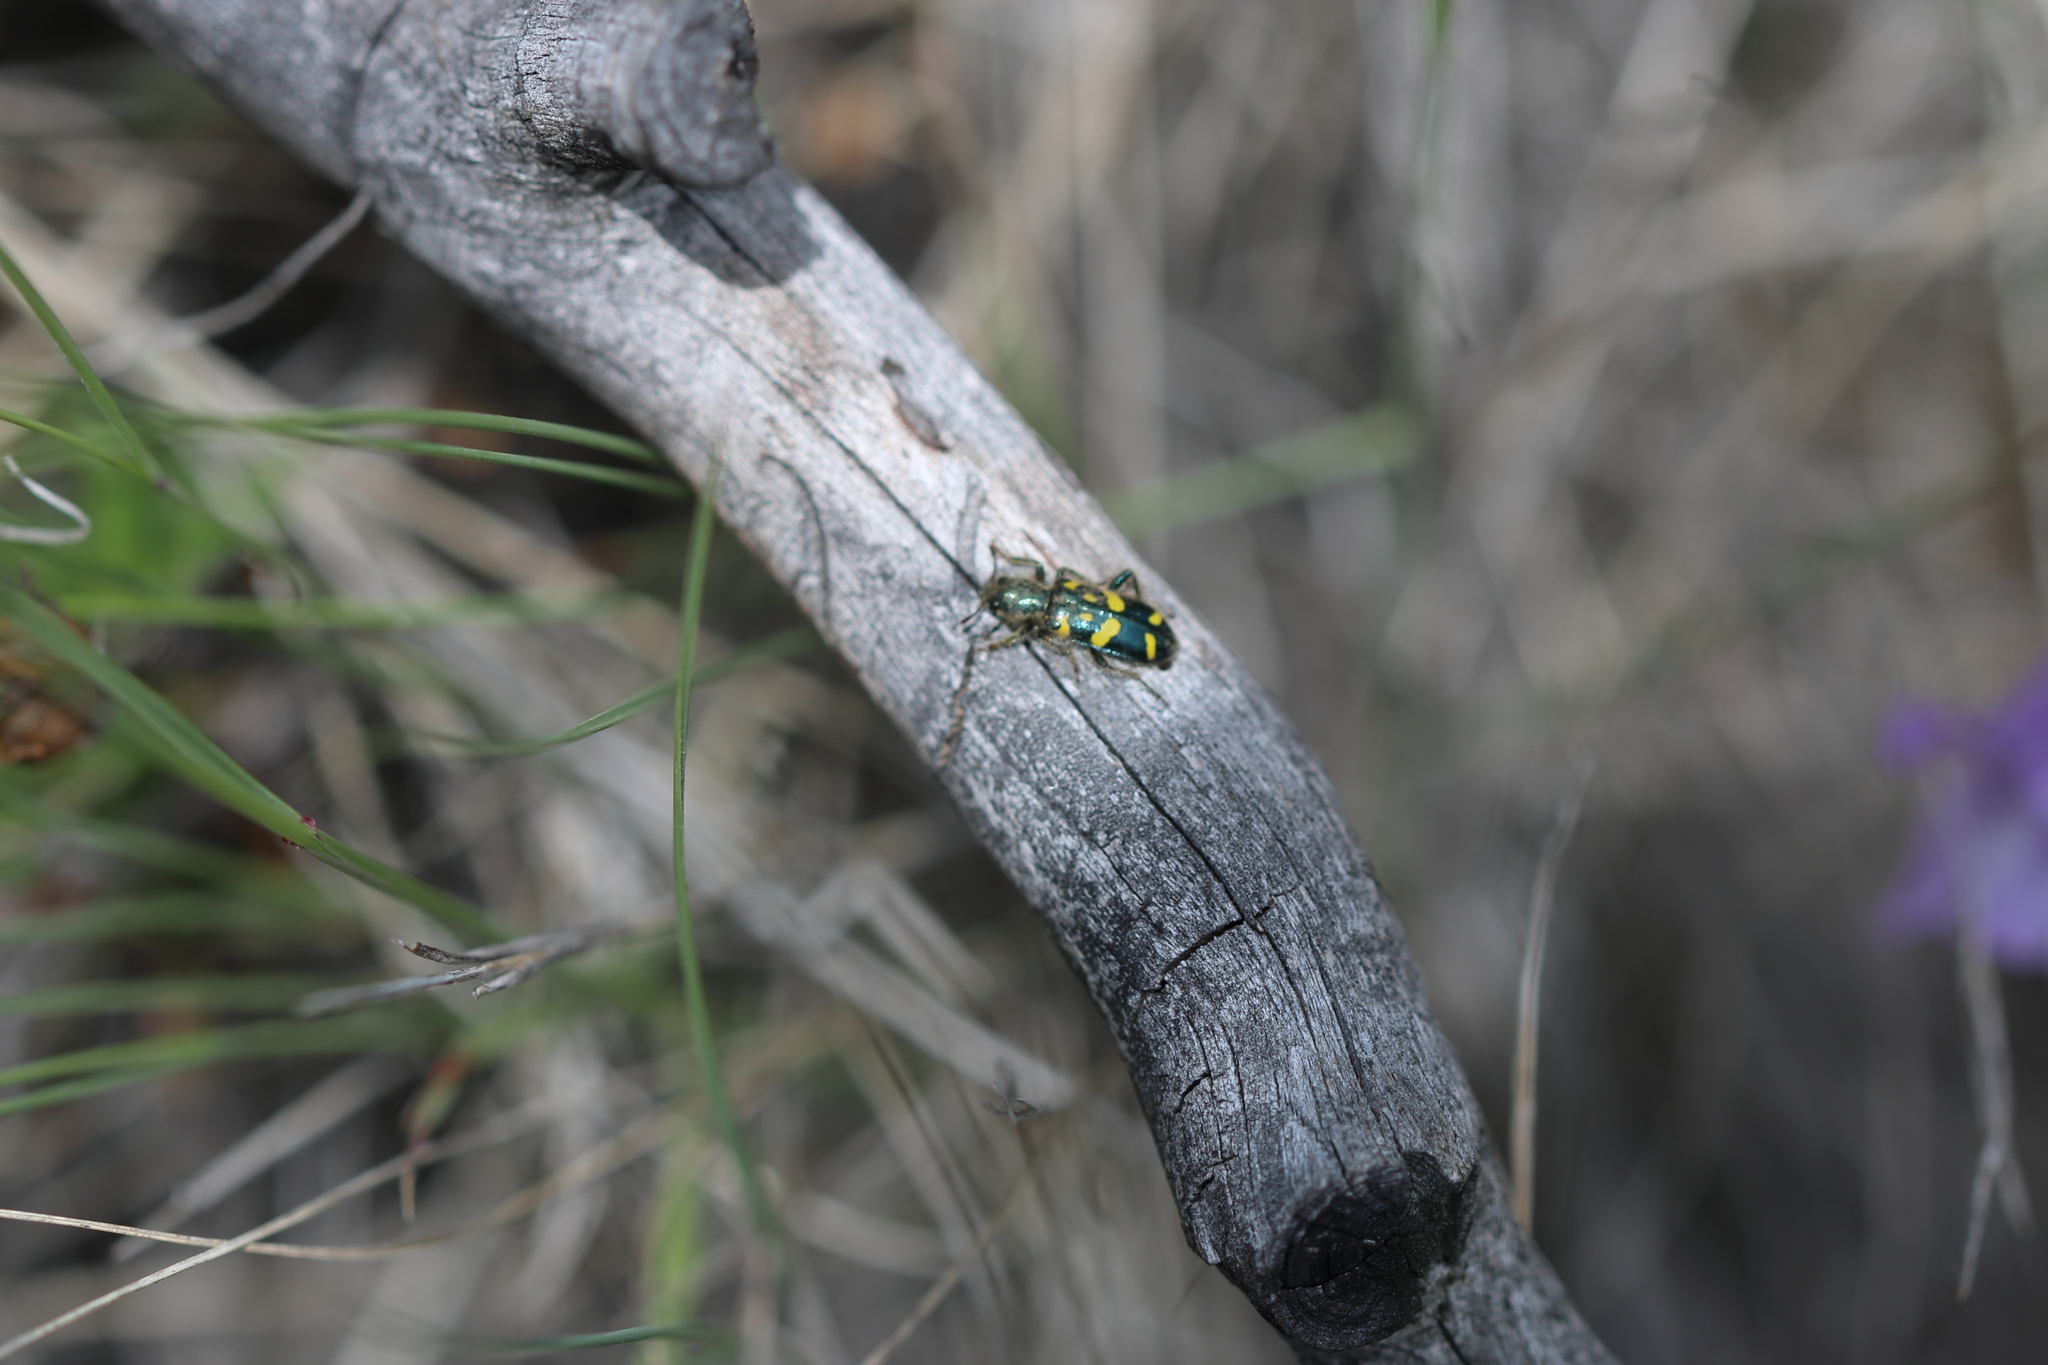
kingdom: Animalia
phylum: Arthropoda
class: Insecta
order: Coleoptera
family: Cleridae
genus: Trichodes
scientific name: Trichodes ornatus
